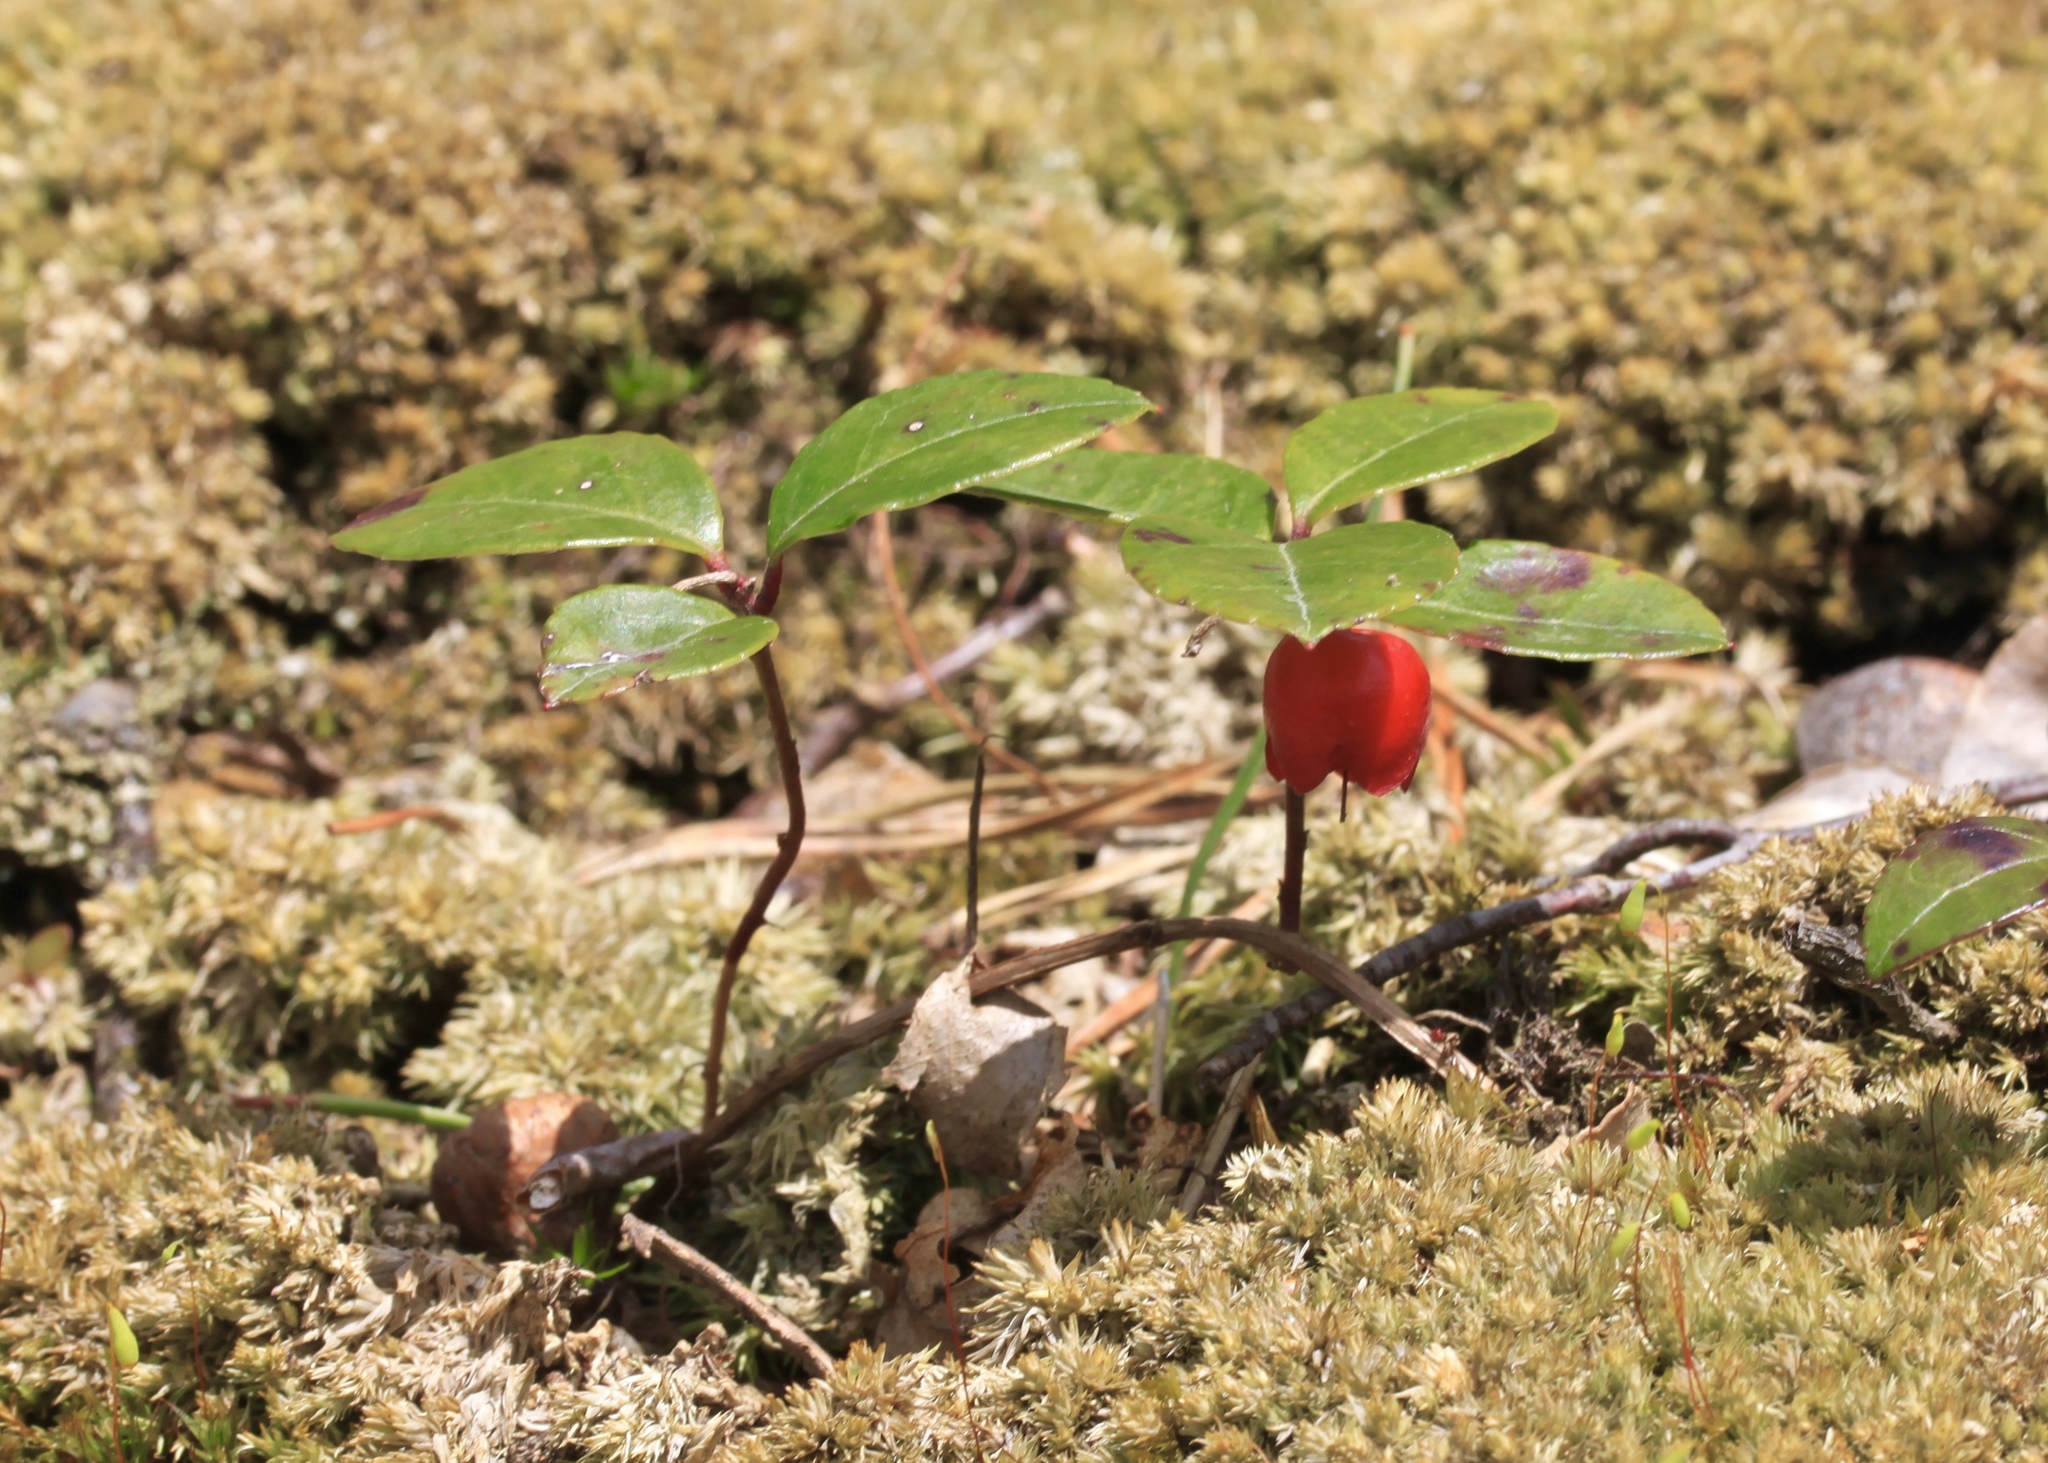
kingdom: Plantae
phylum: Tracheophyta
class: Magnoliopsida
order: Ericales
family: Ericaceae
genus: Gaultheria
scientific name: Gaultheria procumbens
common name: Checkerberry
